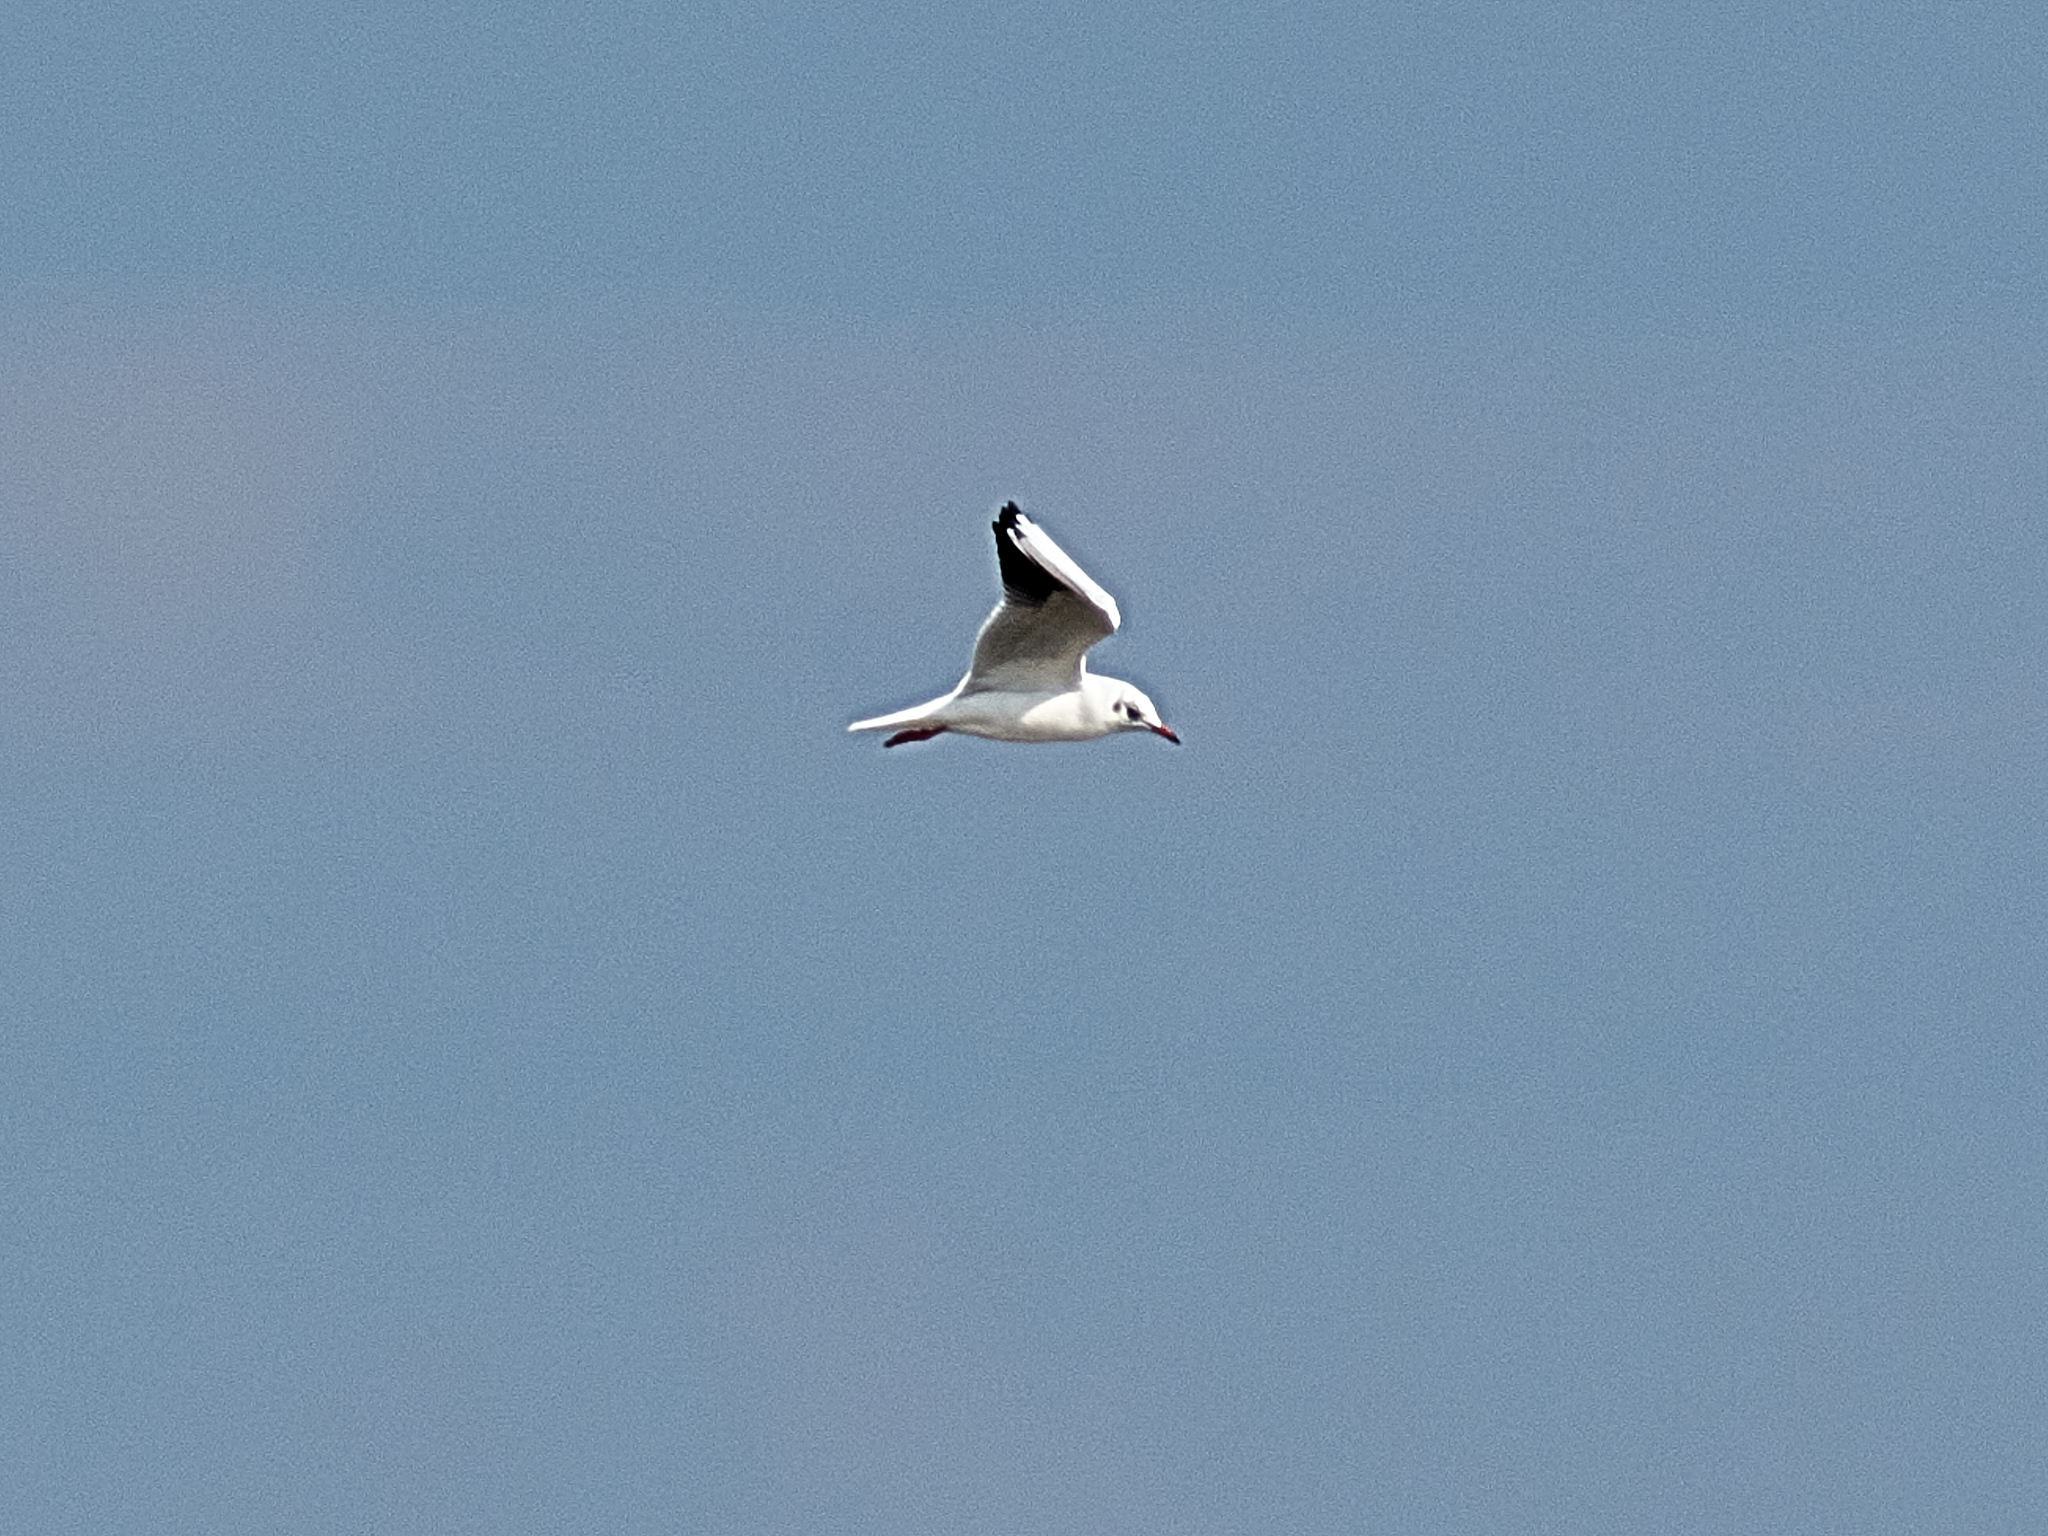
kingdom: Animalia
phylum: Chordata
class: Aves
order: Charadriiformes
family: Laridae
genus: Chroicocephalus
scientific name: Chroicocephalus ridibundus
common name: Black-headed gull
